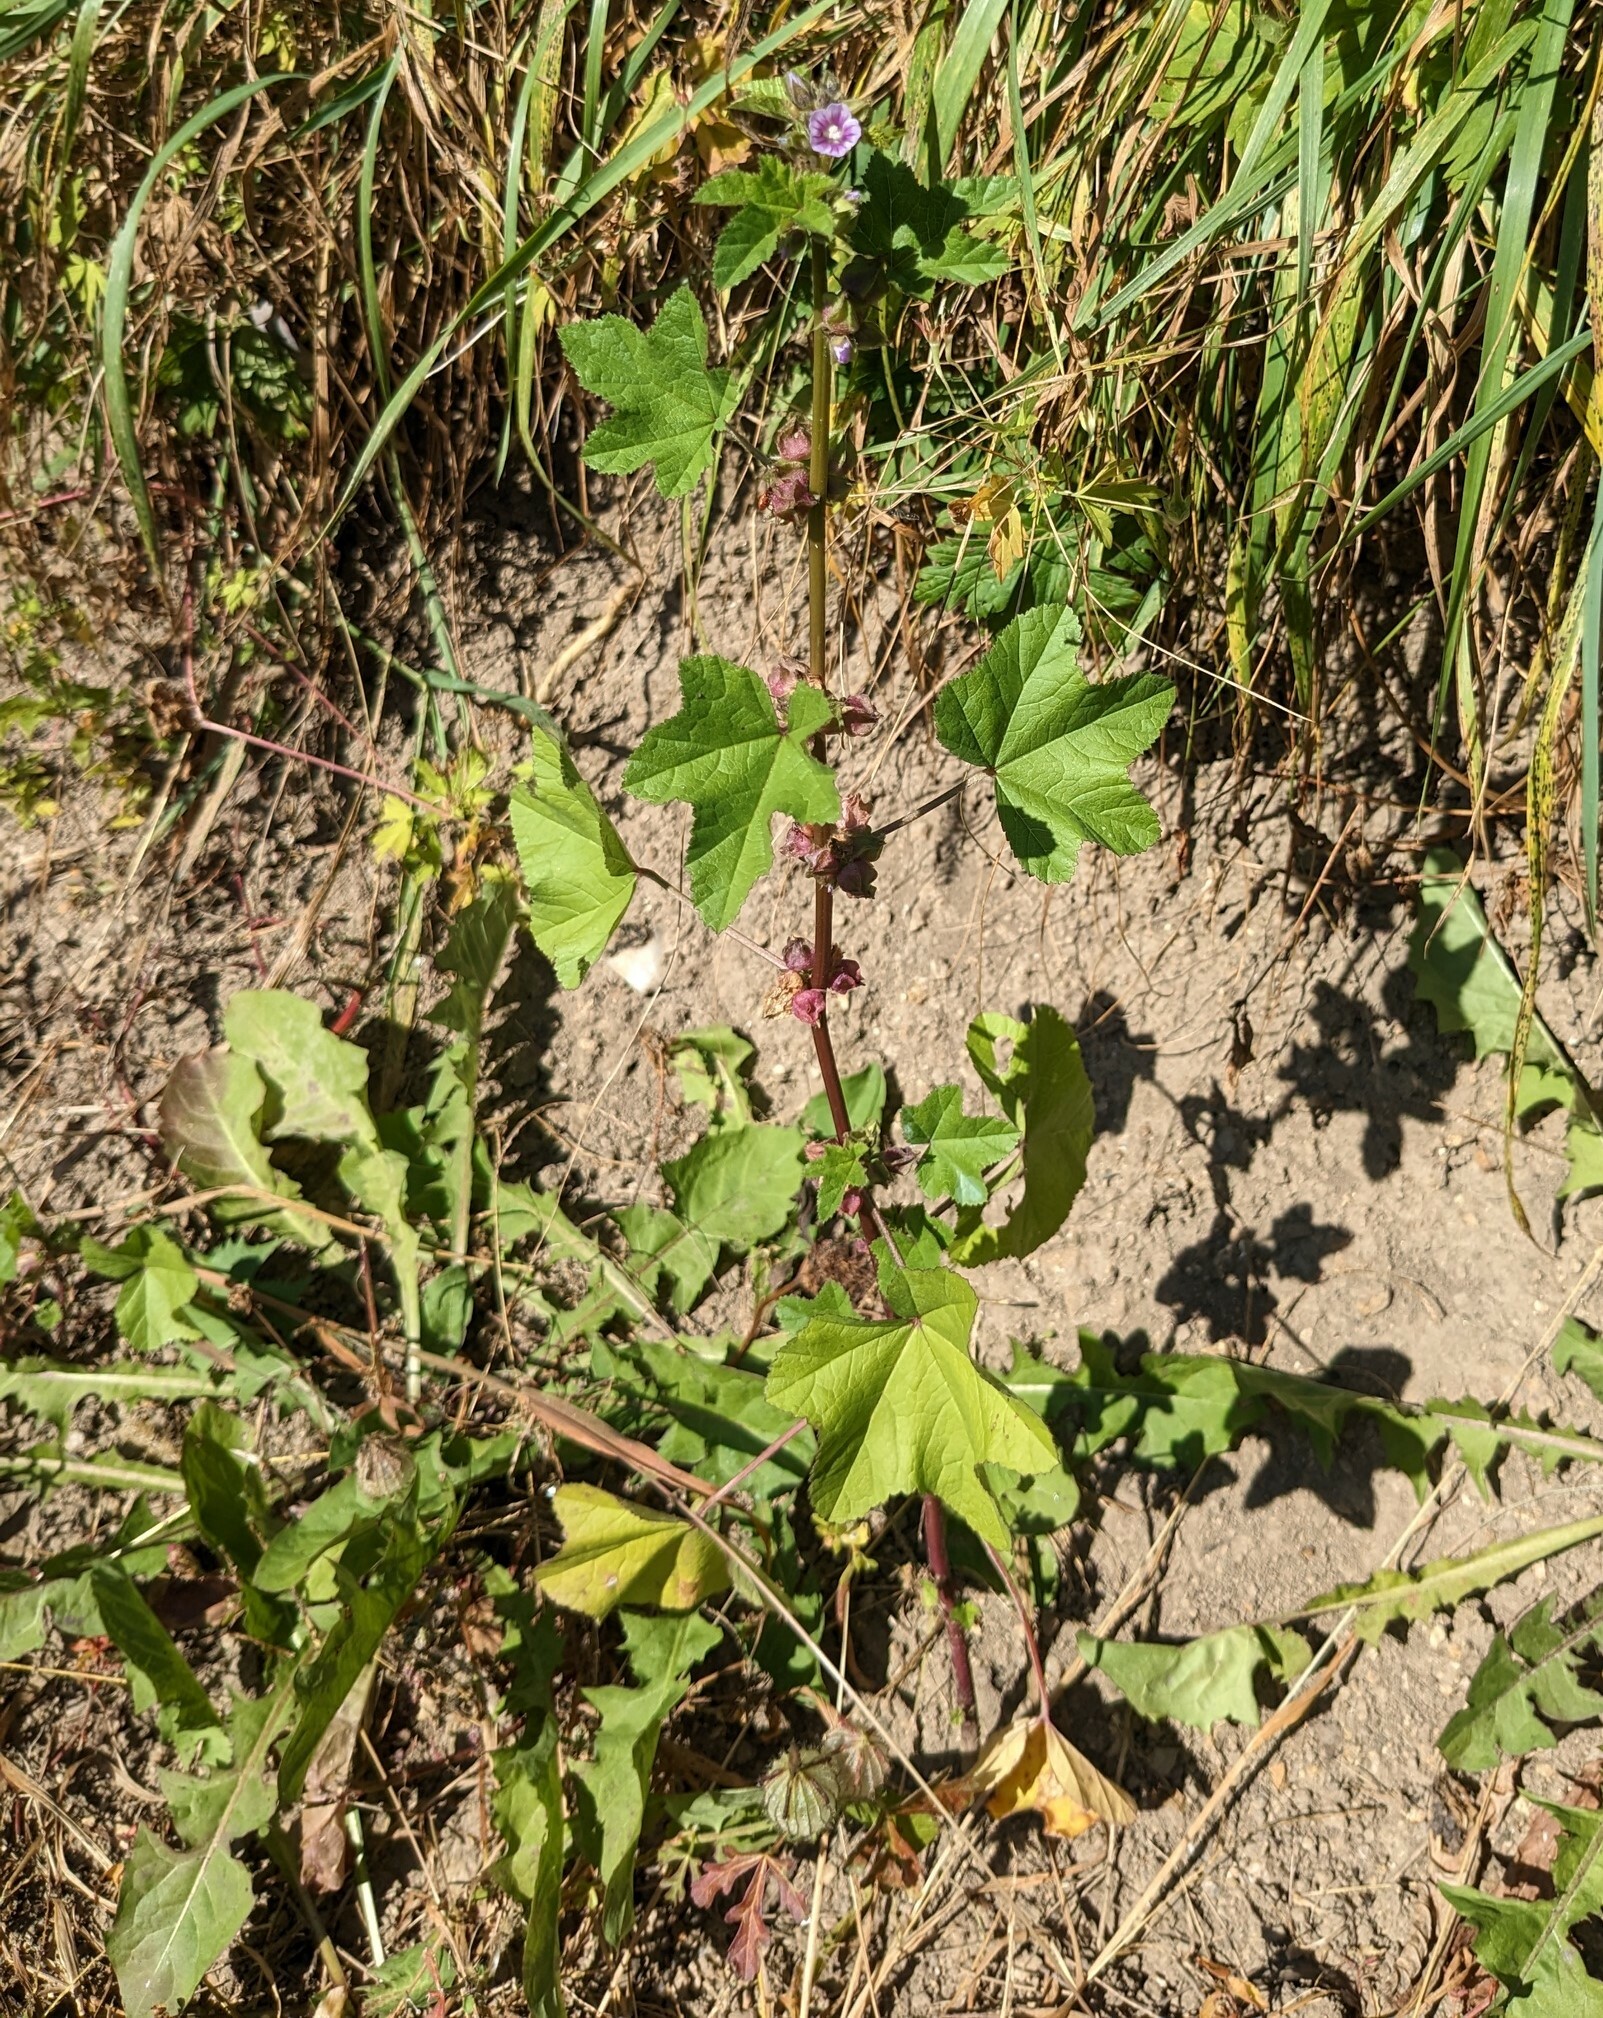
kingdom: Plantae
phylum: Tracheophyta
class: Magnoliopsida
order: Malvales
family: Malvaceae
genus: Malva
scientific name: Malva verticillata
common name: Chinese mallow
